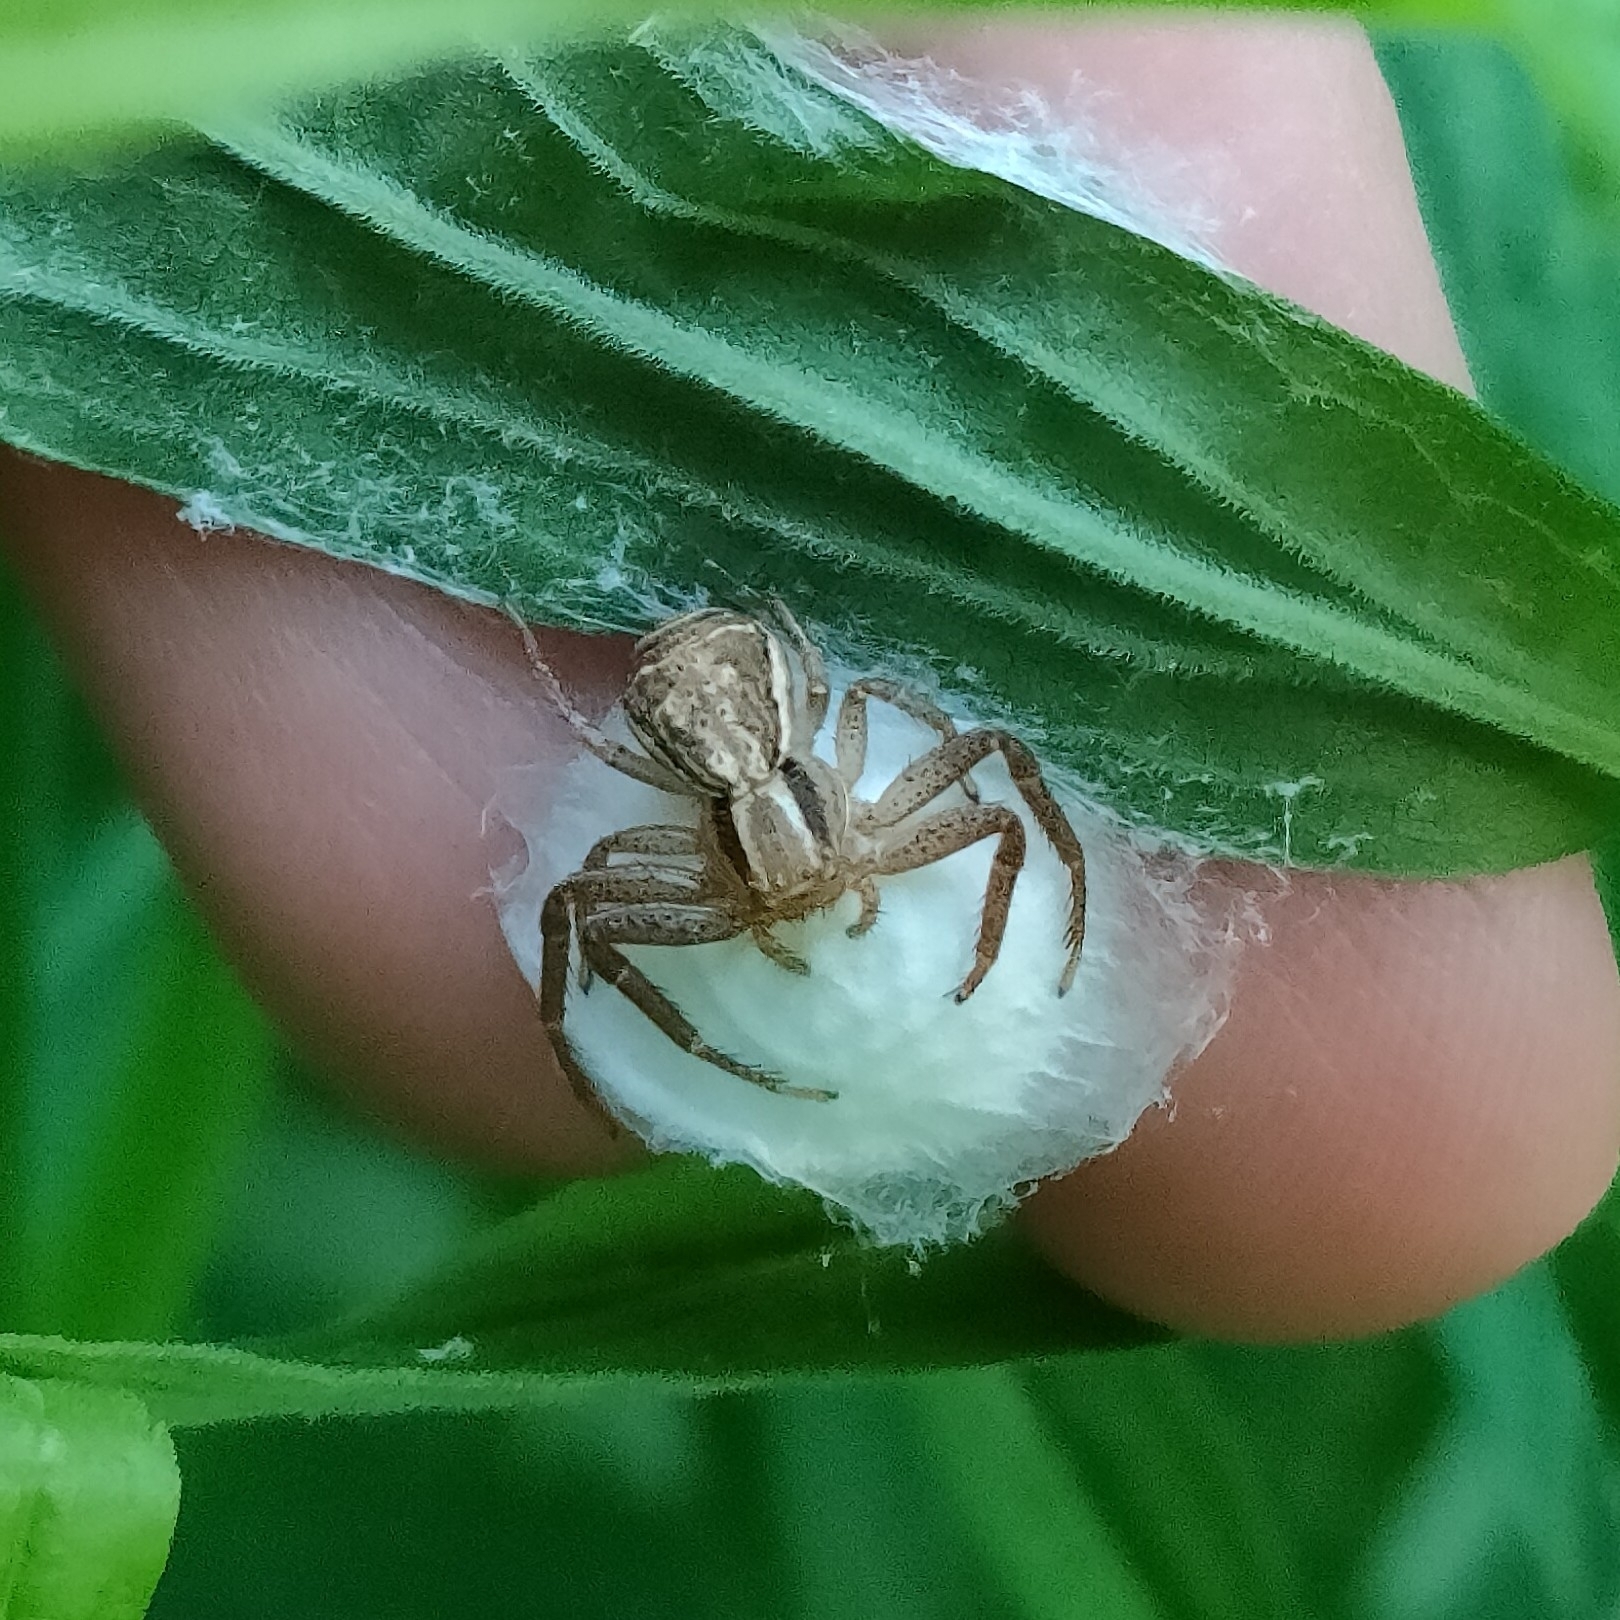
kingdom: Animalia
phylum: Arthropoda
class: Arachnida
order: Araneae
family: Thomisidae
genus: Xysticus
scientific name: Xysticus ulmi
